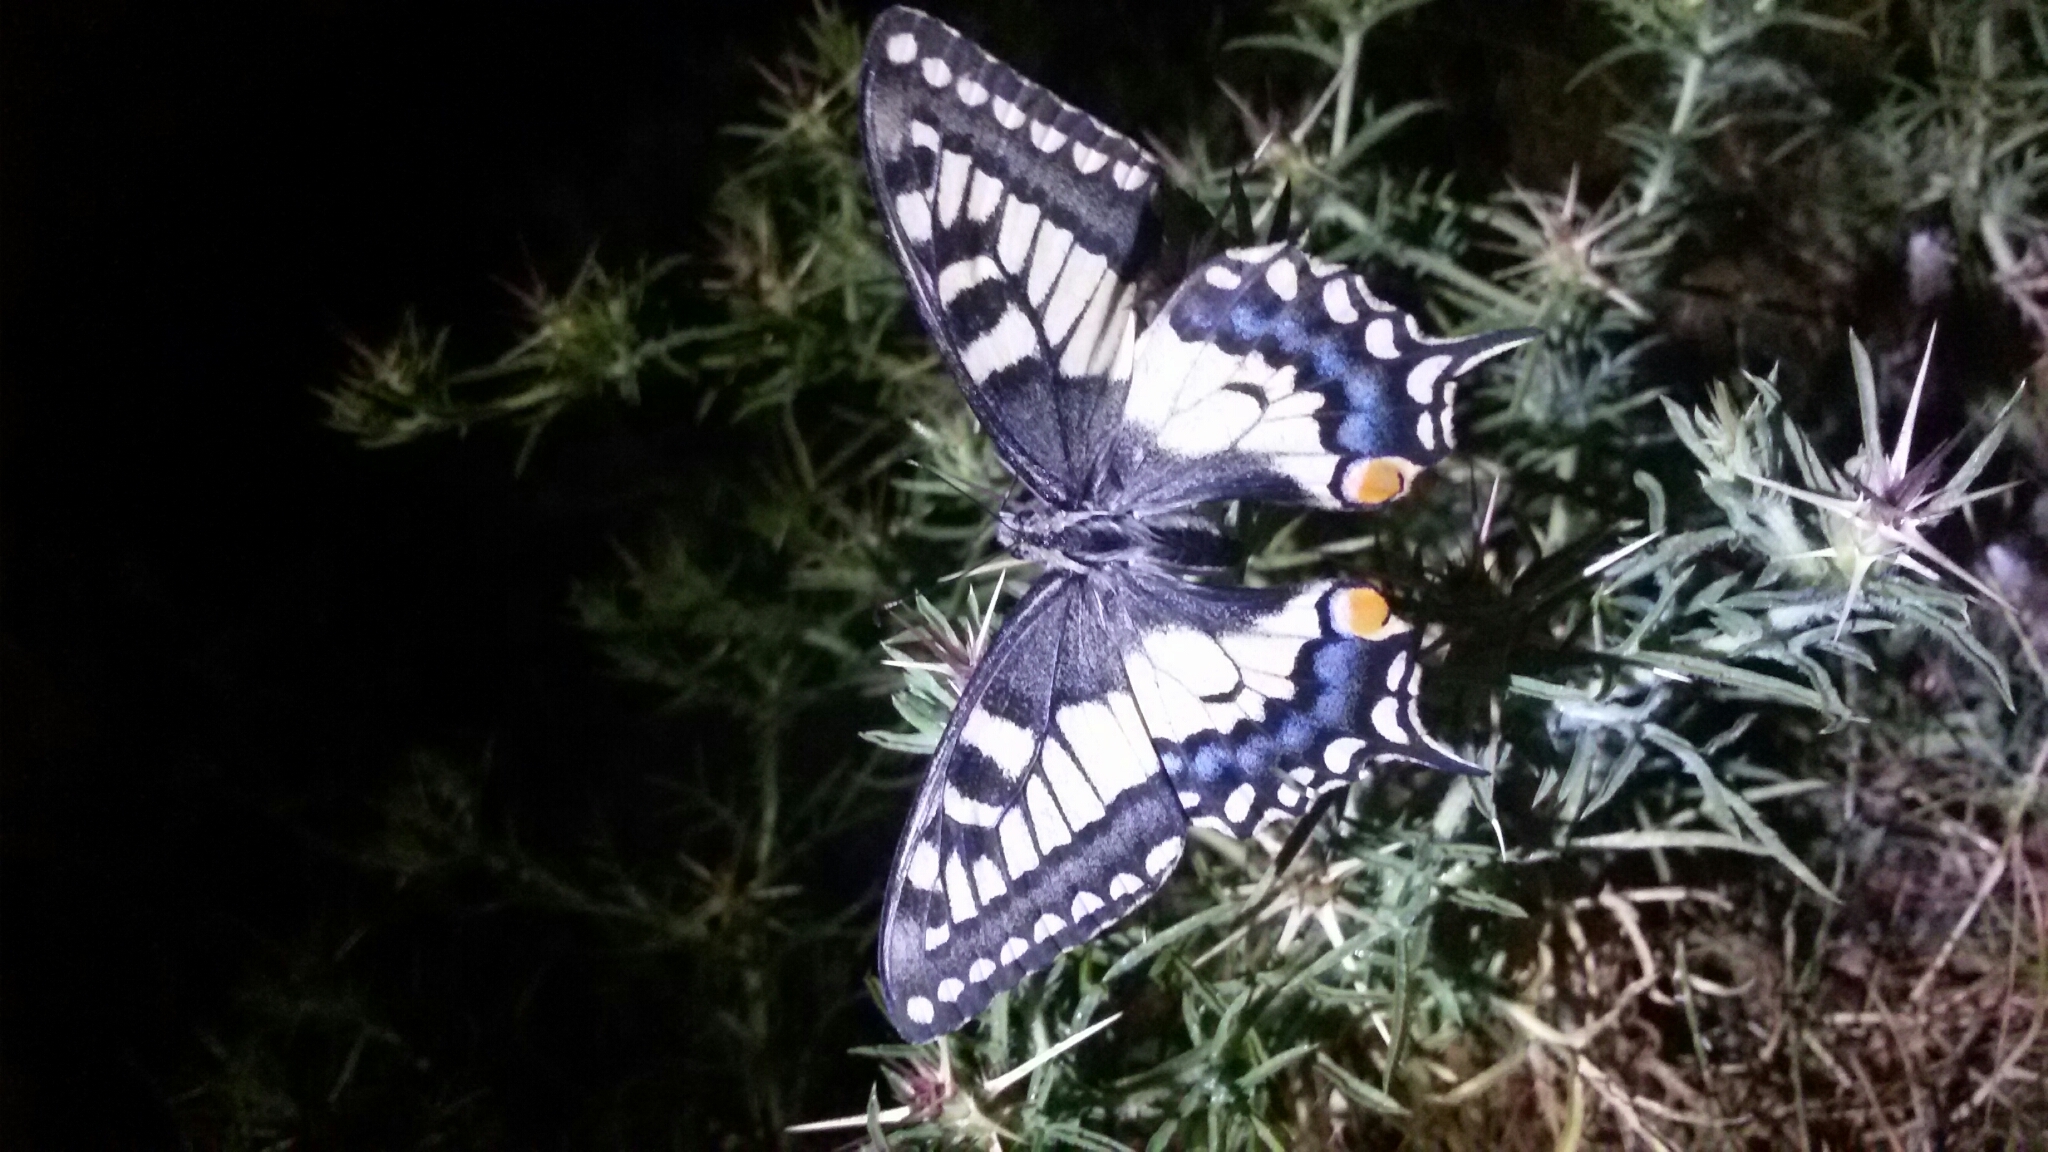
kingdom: Animalia
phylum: Arthropoda
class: Insecta
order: Lepidoptera
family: Papilionidae
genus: Papilio
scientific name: Papilio machaon
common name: Swallowtail
